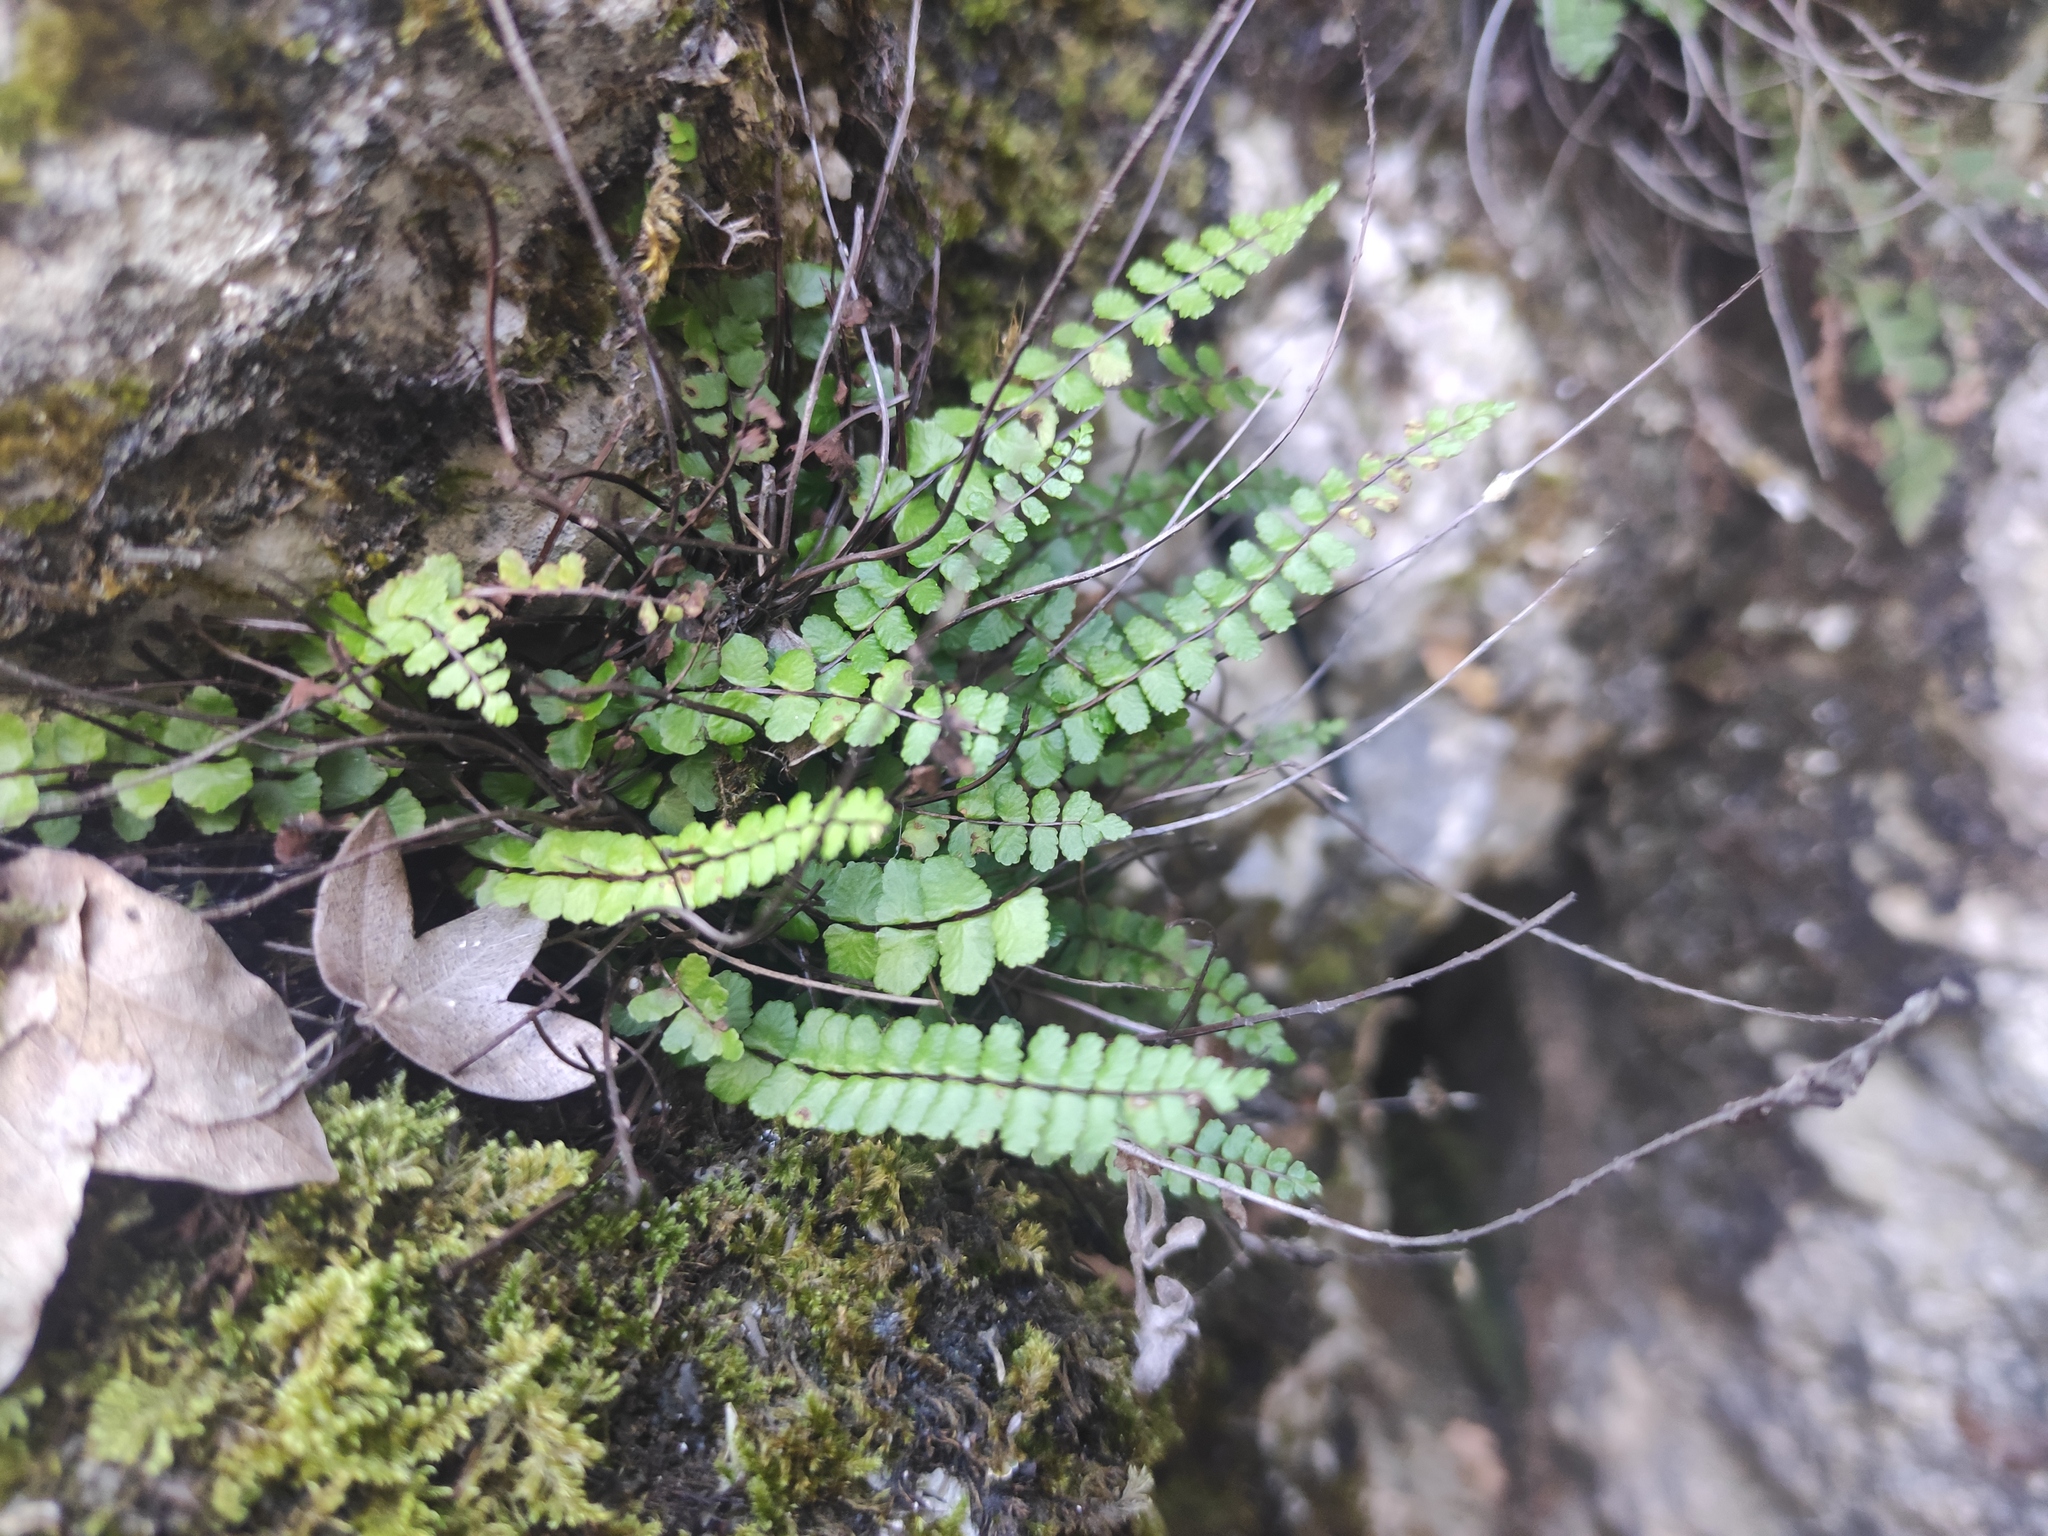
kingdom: Plantae
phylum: Tracheophyta
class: Polypodiopsida
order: Polypodiales
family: Aspleniaceae
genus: Asplenium
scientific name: Asplenium trichomanes
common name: Maidenhair spleenwort
